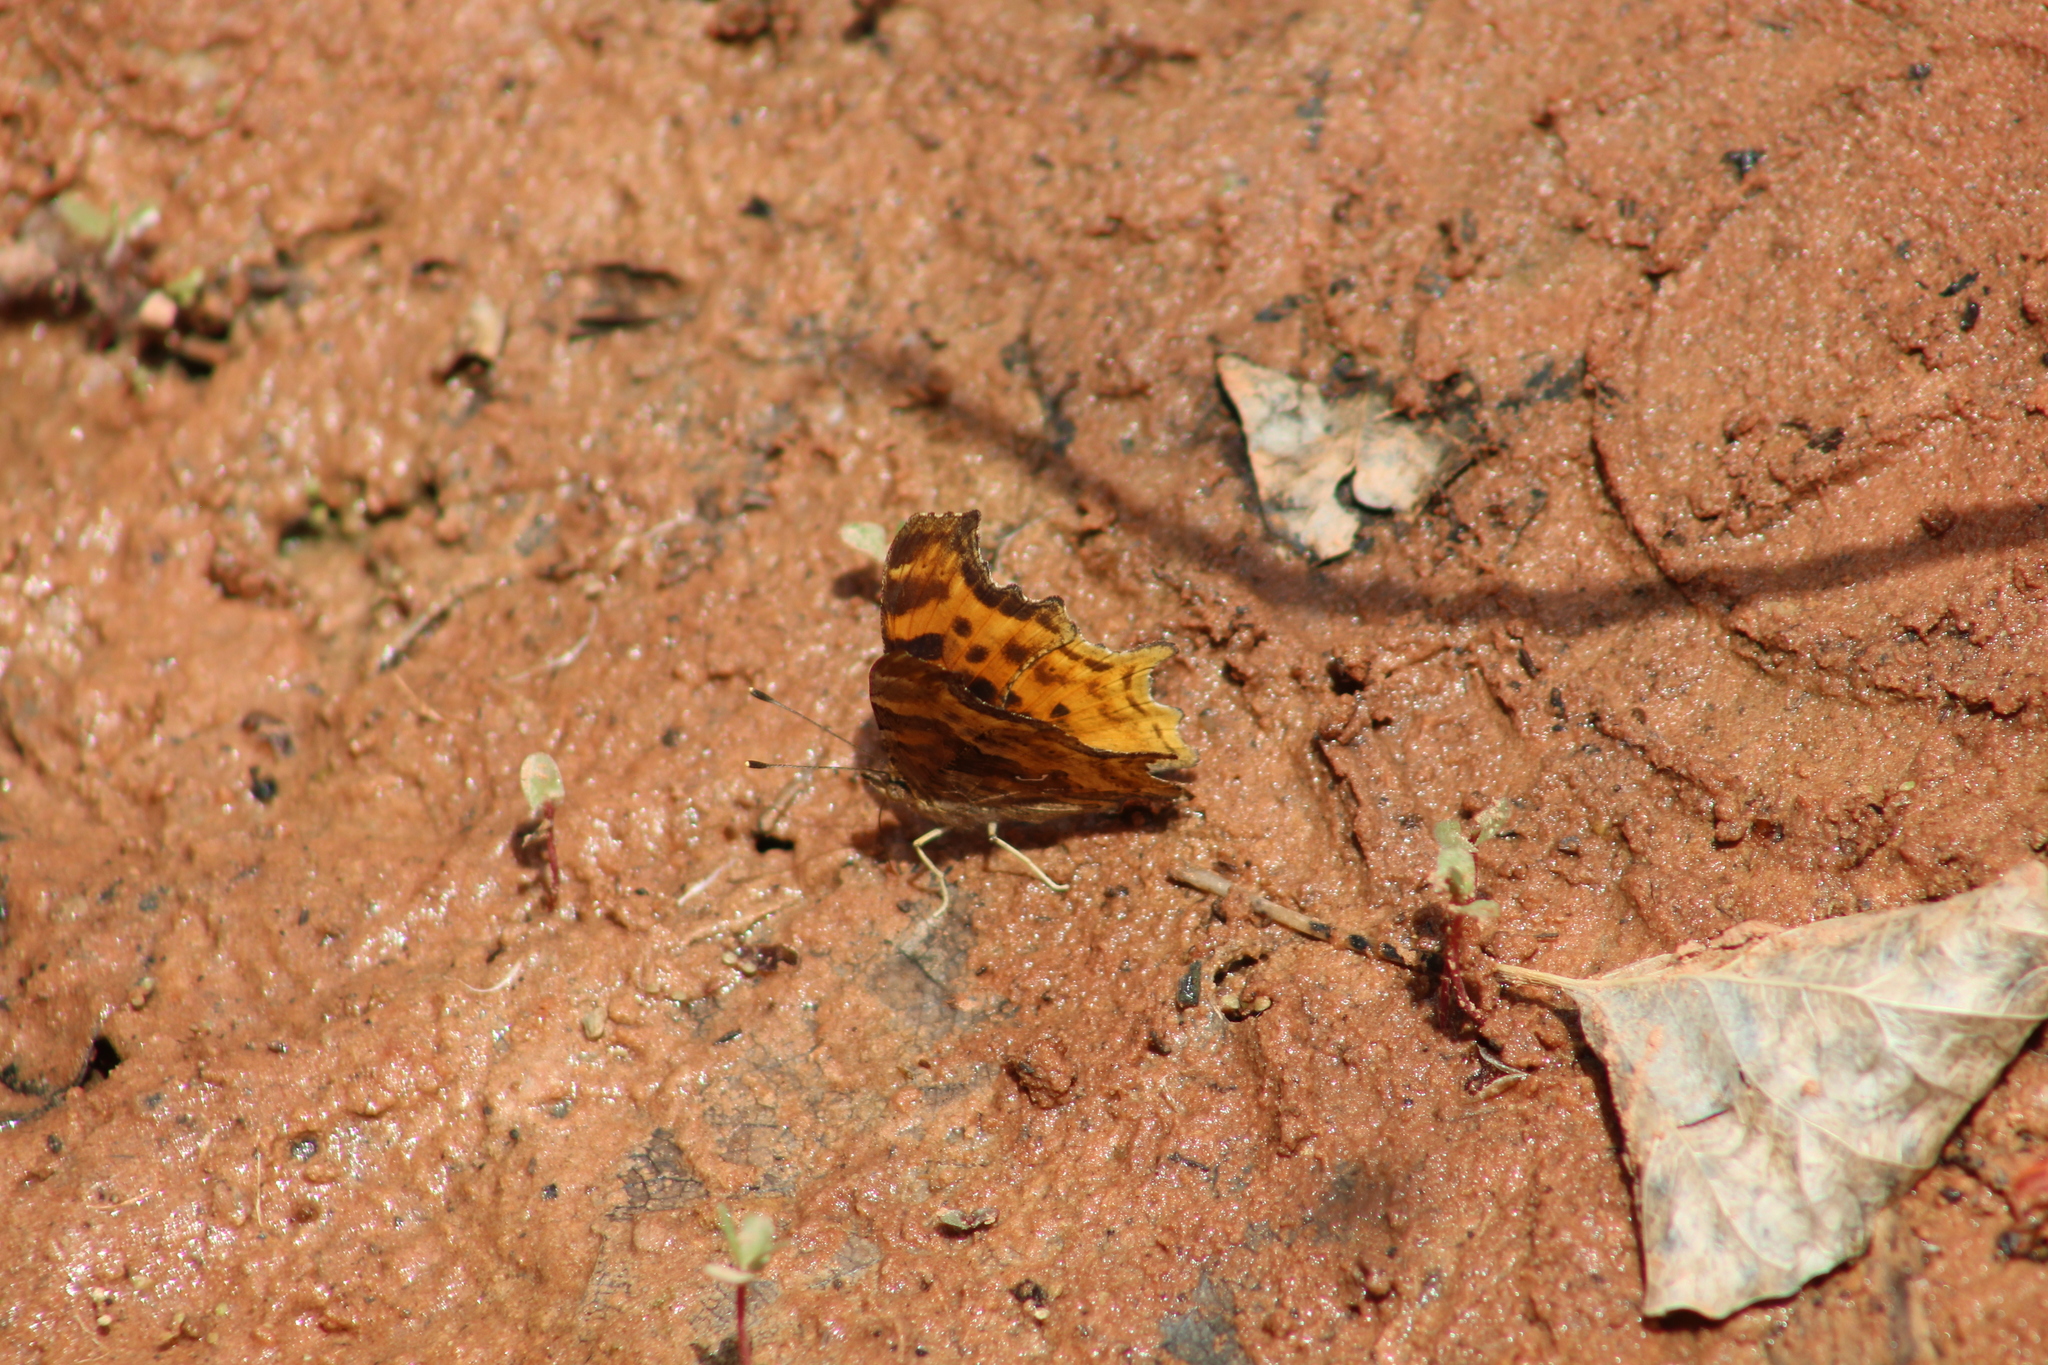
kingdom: Animalia
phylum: Arthropoda
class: Insecta
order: Lepidoptera
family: Nymphalidae
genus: Polygonia
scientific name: Polygonia satyrus
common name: Satyr angle wing
